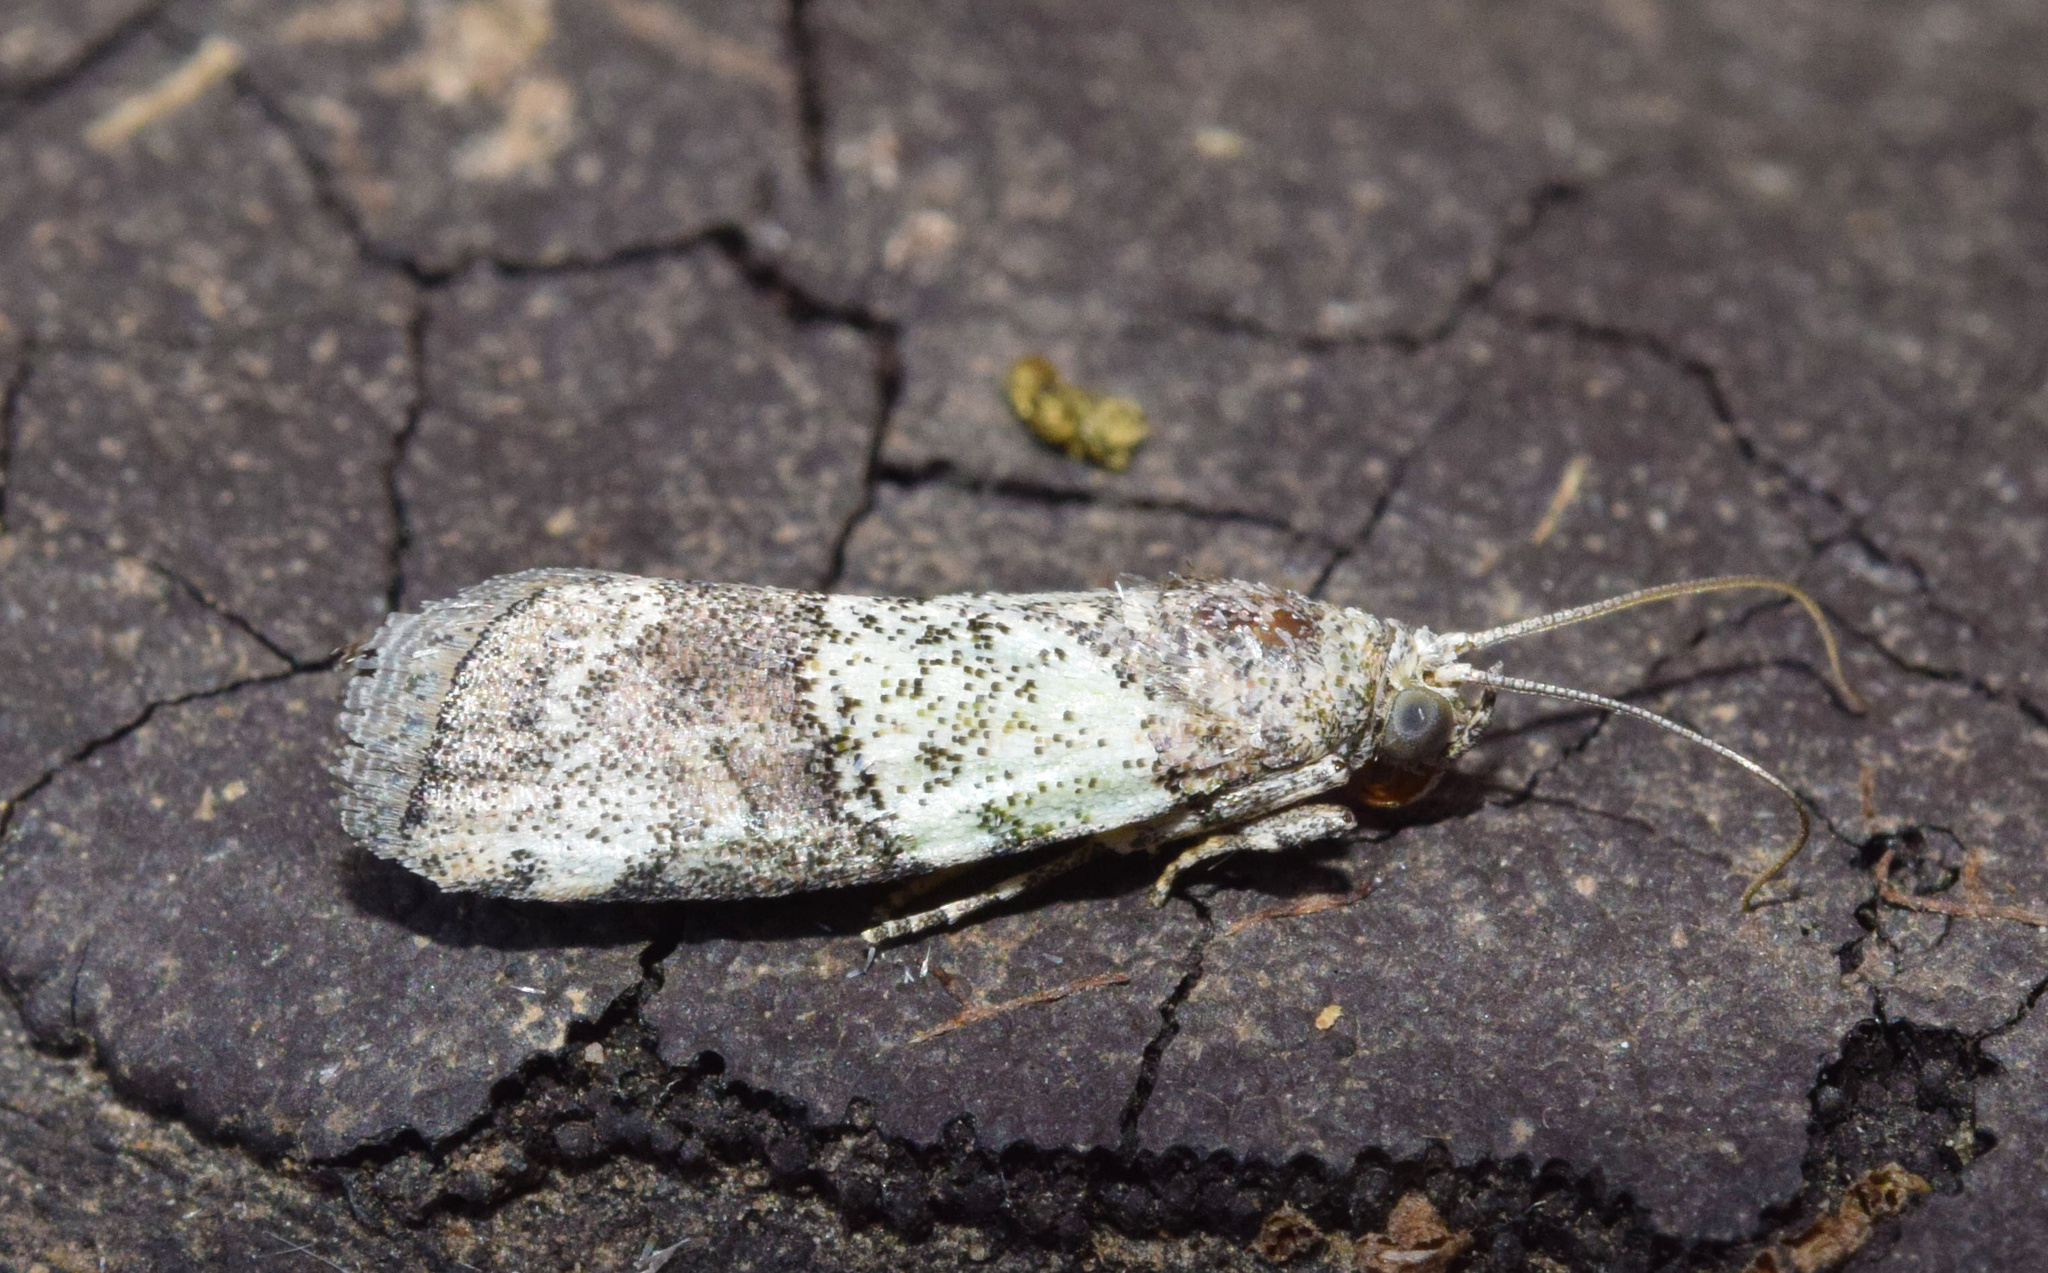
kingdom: Animalia
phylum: Arthropoda
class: Insecta
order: Lepidoptera
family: Pyralidae
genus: Acrobasis
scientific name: Acrobasis
